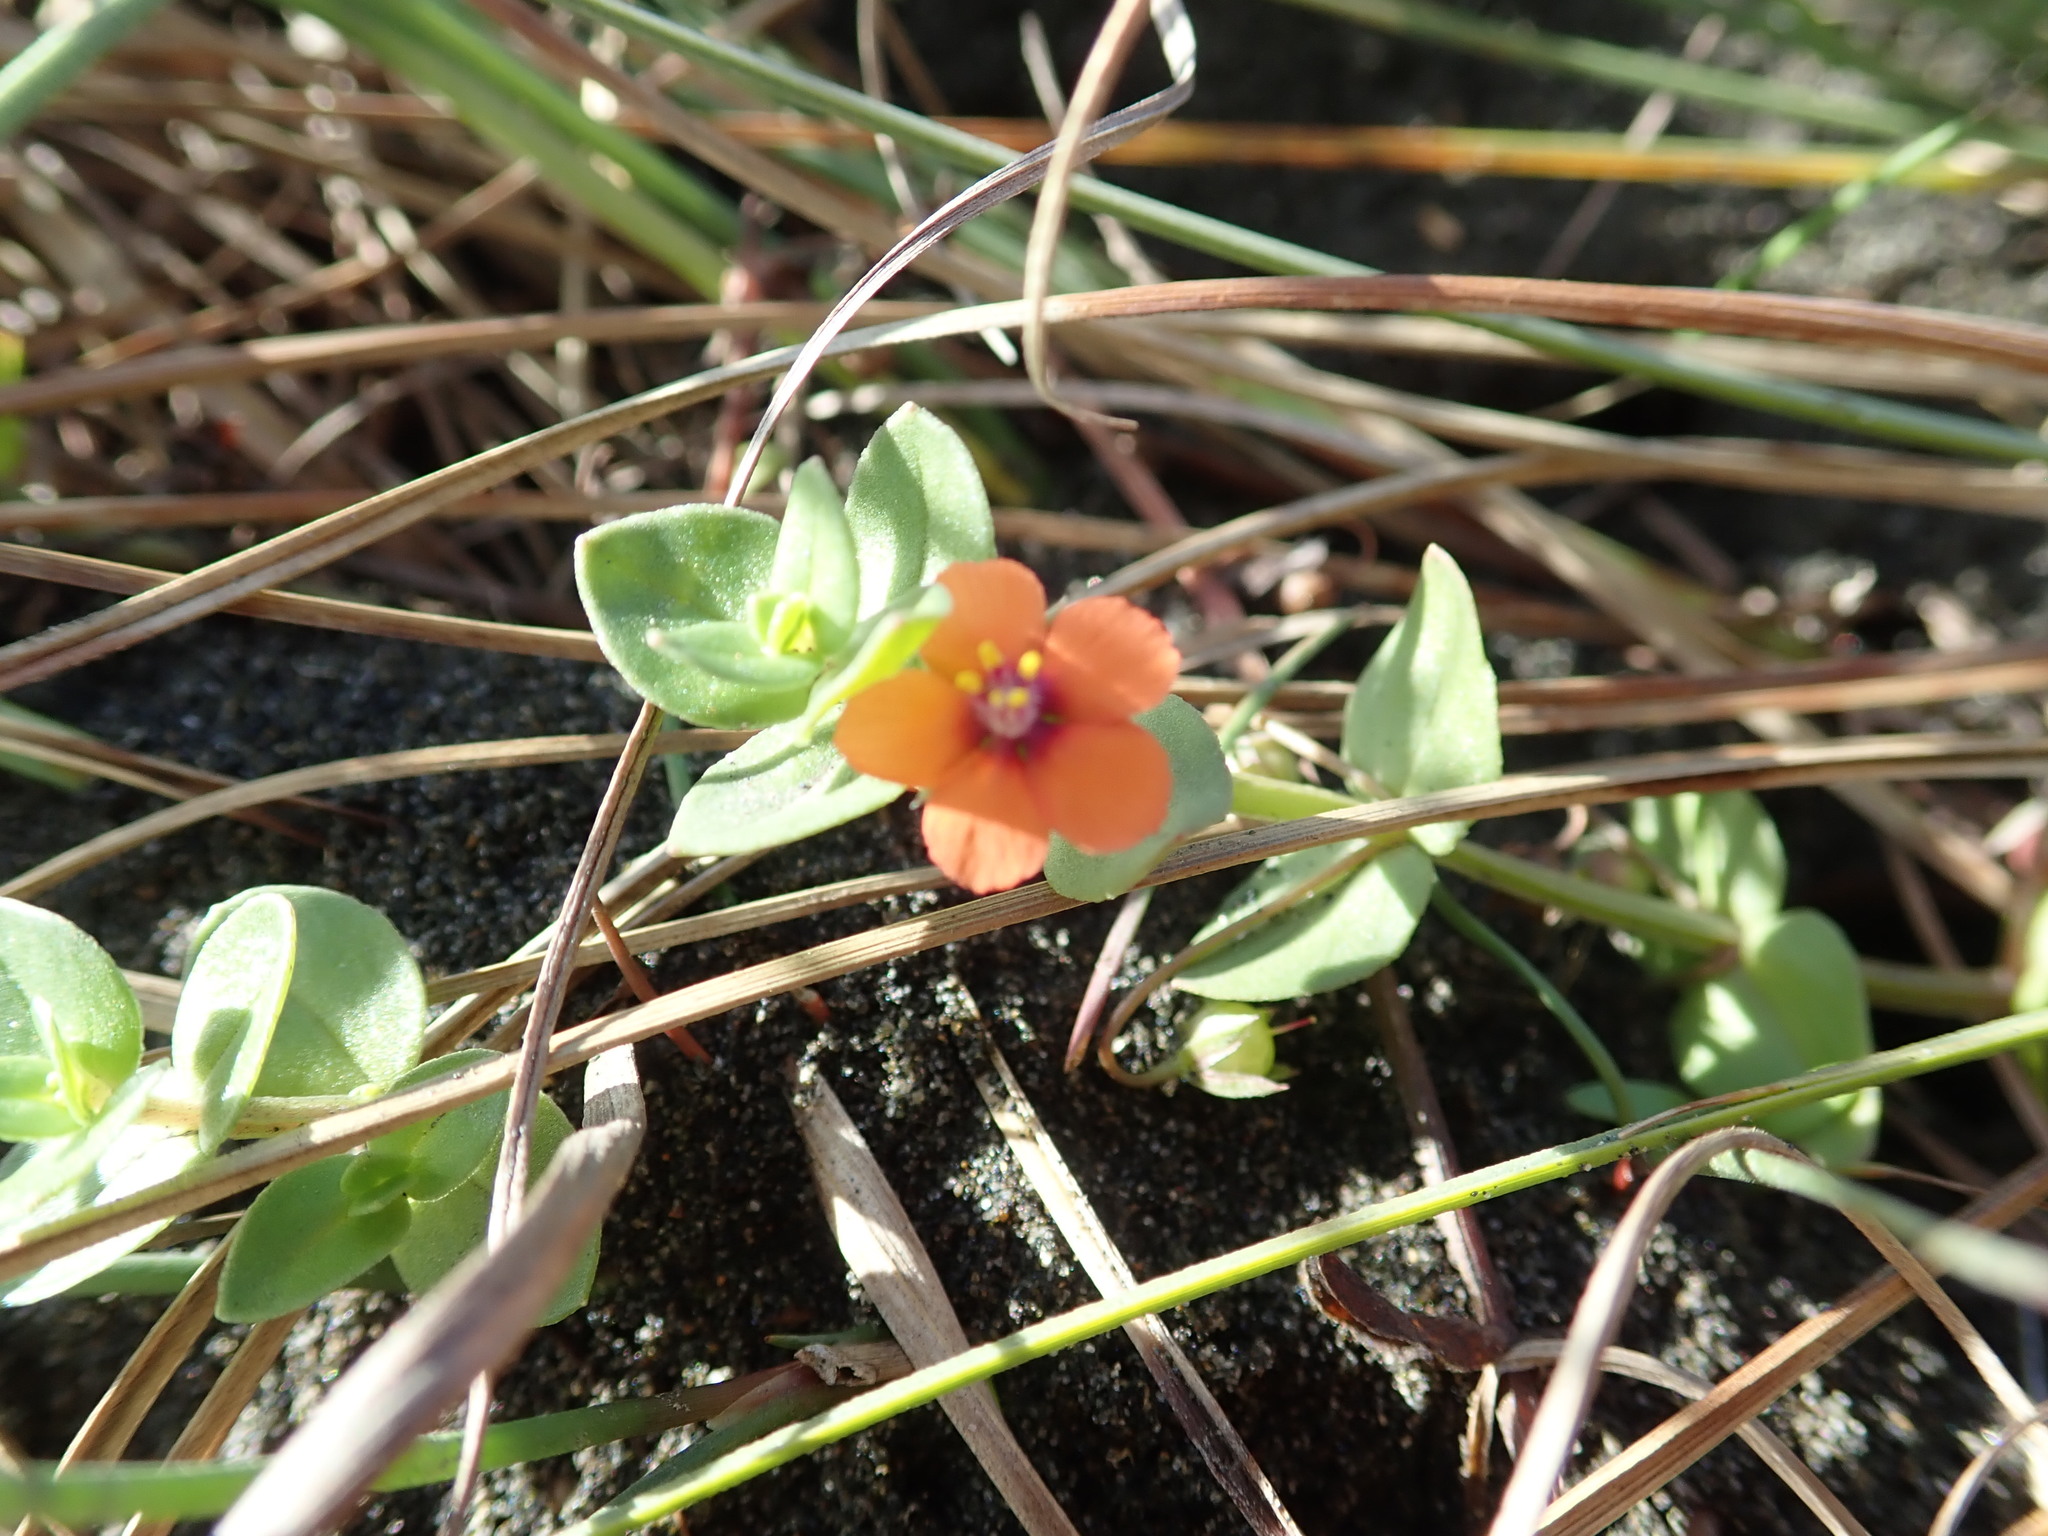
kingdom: Plantae
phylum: Tracheophyta
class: Magnoliopsida
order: Ericales
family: Primulaceae
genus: Lysimachia
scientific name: Lysimachia arvensis
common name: Scarlet pimpernel
